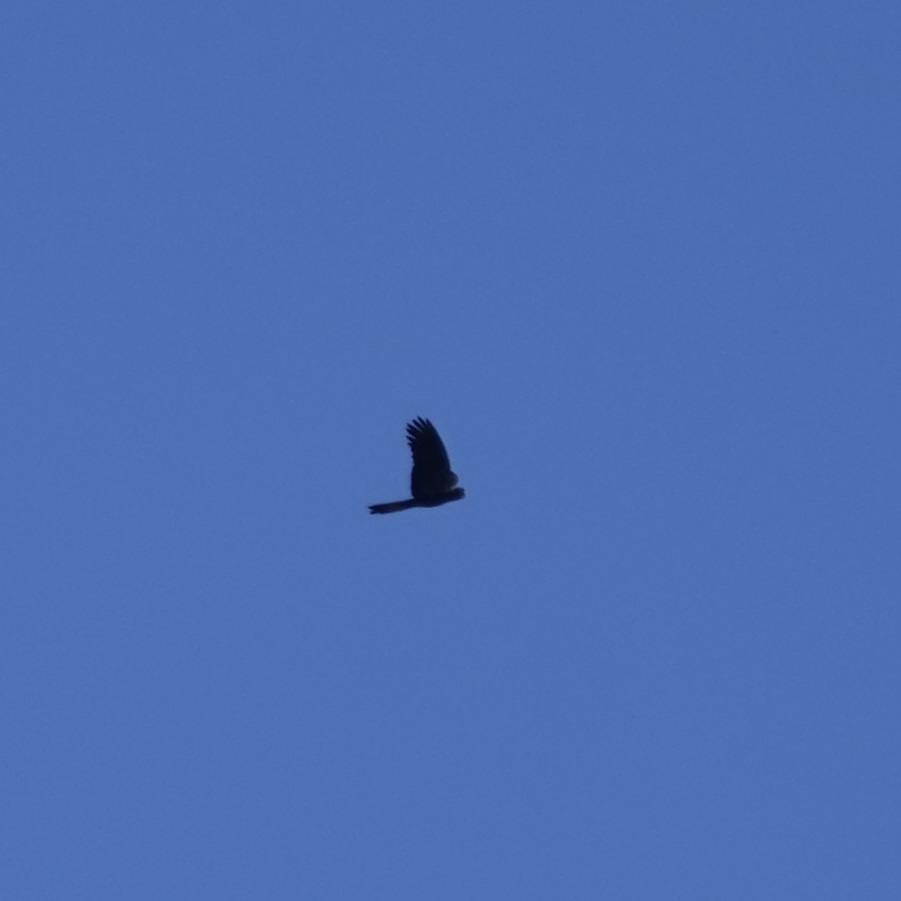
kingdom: Animalia
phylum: Chordata
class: Aves
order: Psittaciformes
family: Cacatuidae
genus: Zanda
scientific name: Zanda funerea
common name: Yellow-tailed black-cockatoo
